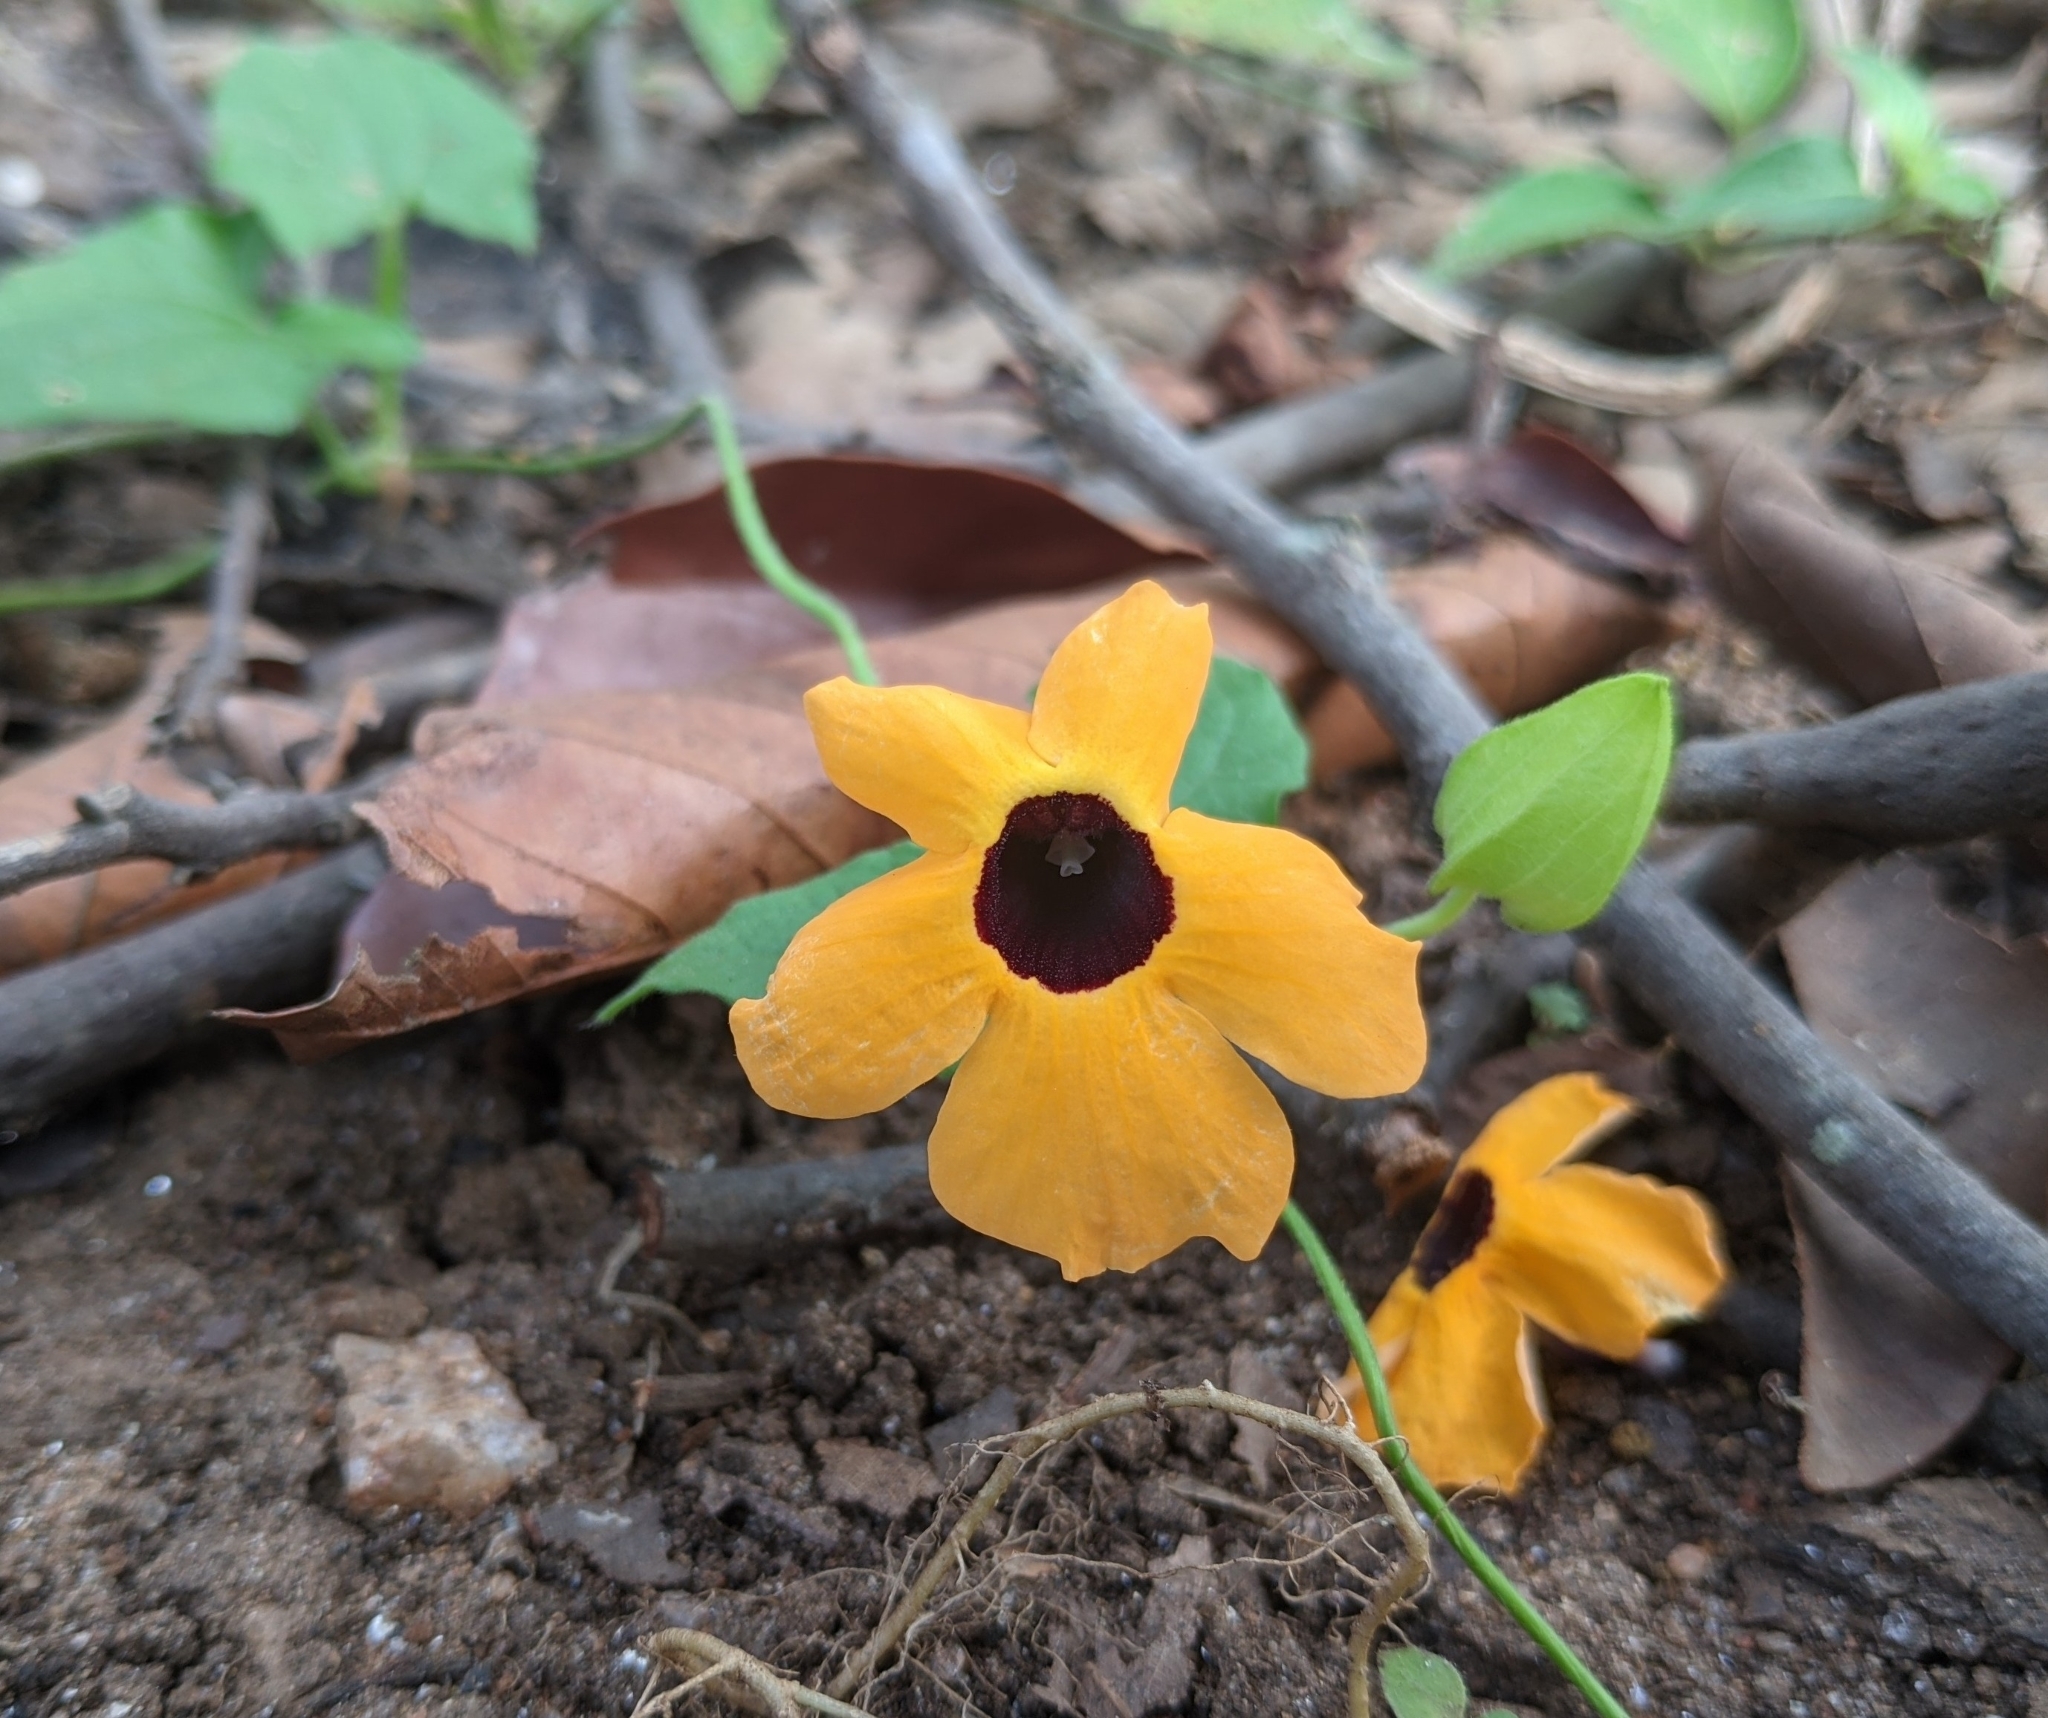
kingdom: Plantae
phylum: Tracheophyta
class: Magnoliopsida
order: Lamiales
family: Acanthaceae
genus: Thunbergia
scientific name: Thunbergia alata
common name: Blackeyed susan vine
